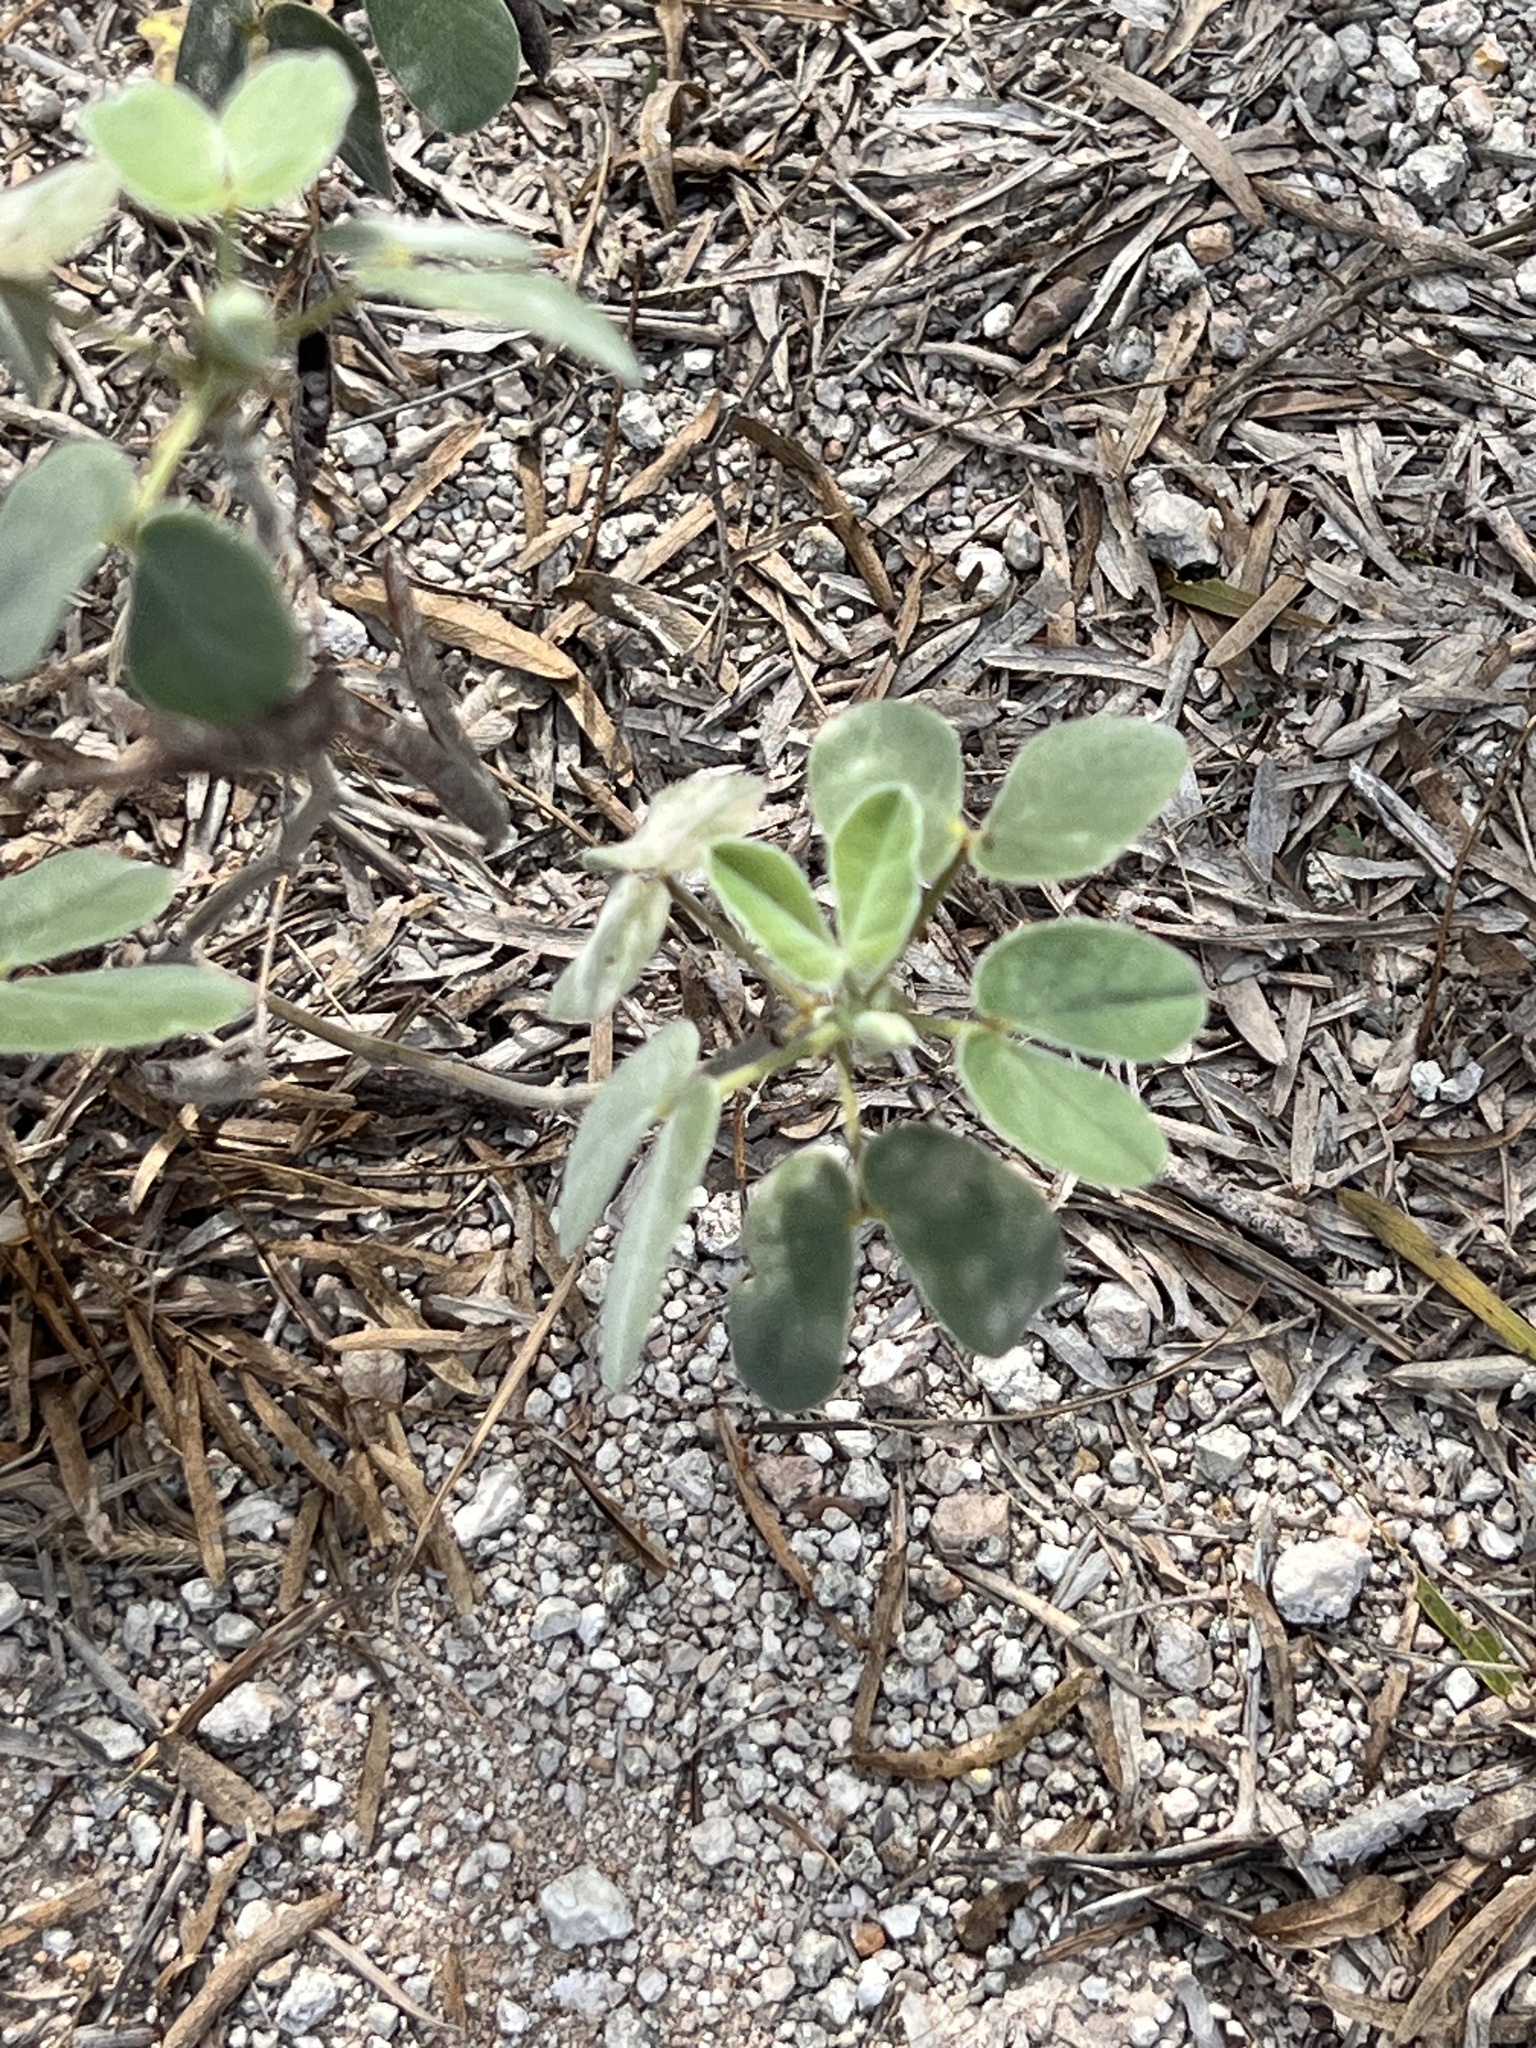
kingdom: Plantae
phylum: Tracheophyta
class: Magnoliopsida
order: Fabales
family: Fabaceae
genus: Senna
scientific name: Senna bauhinioides
